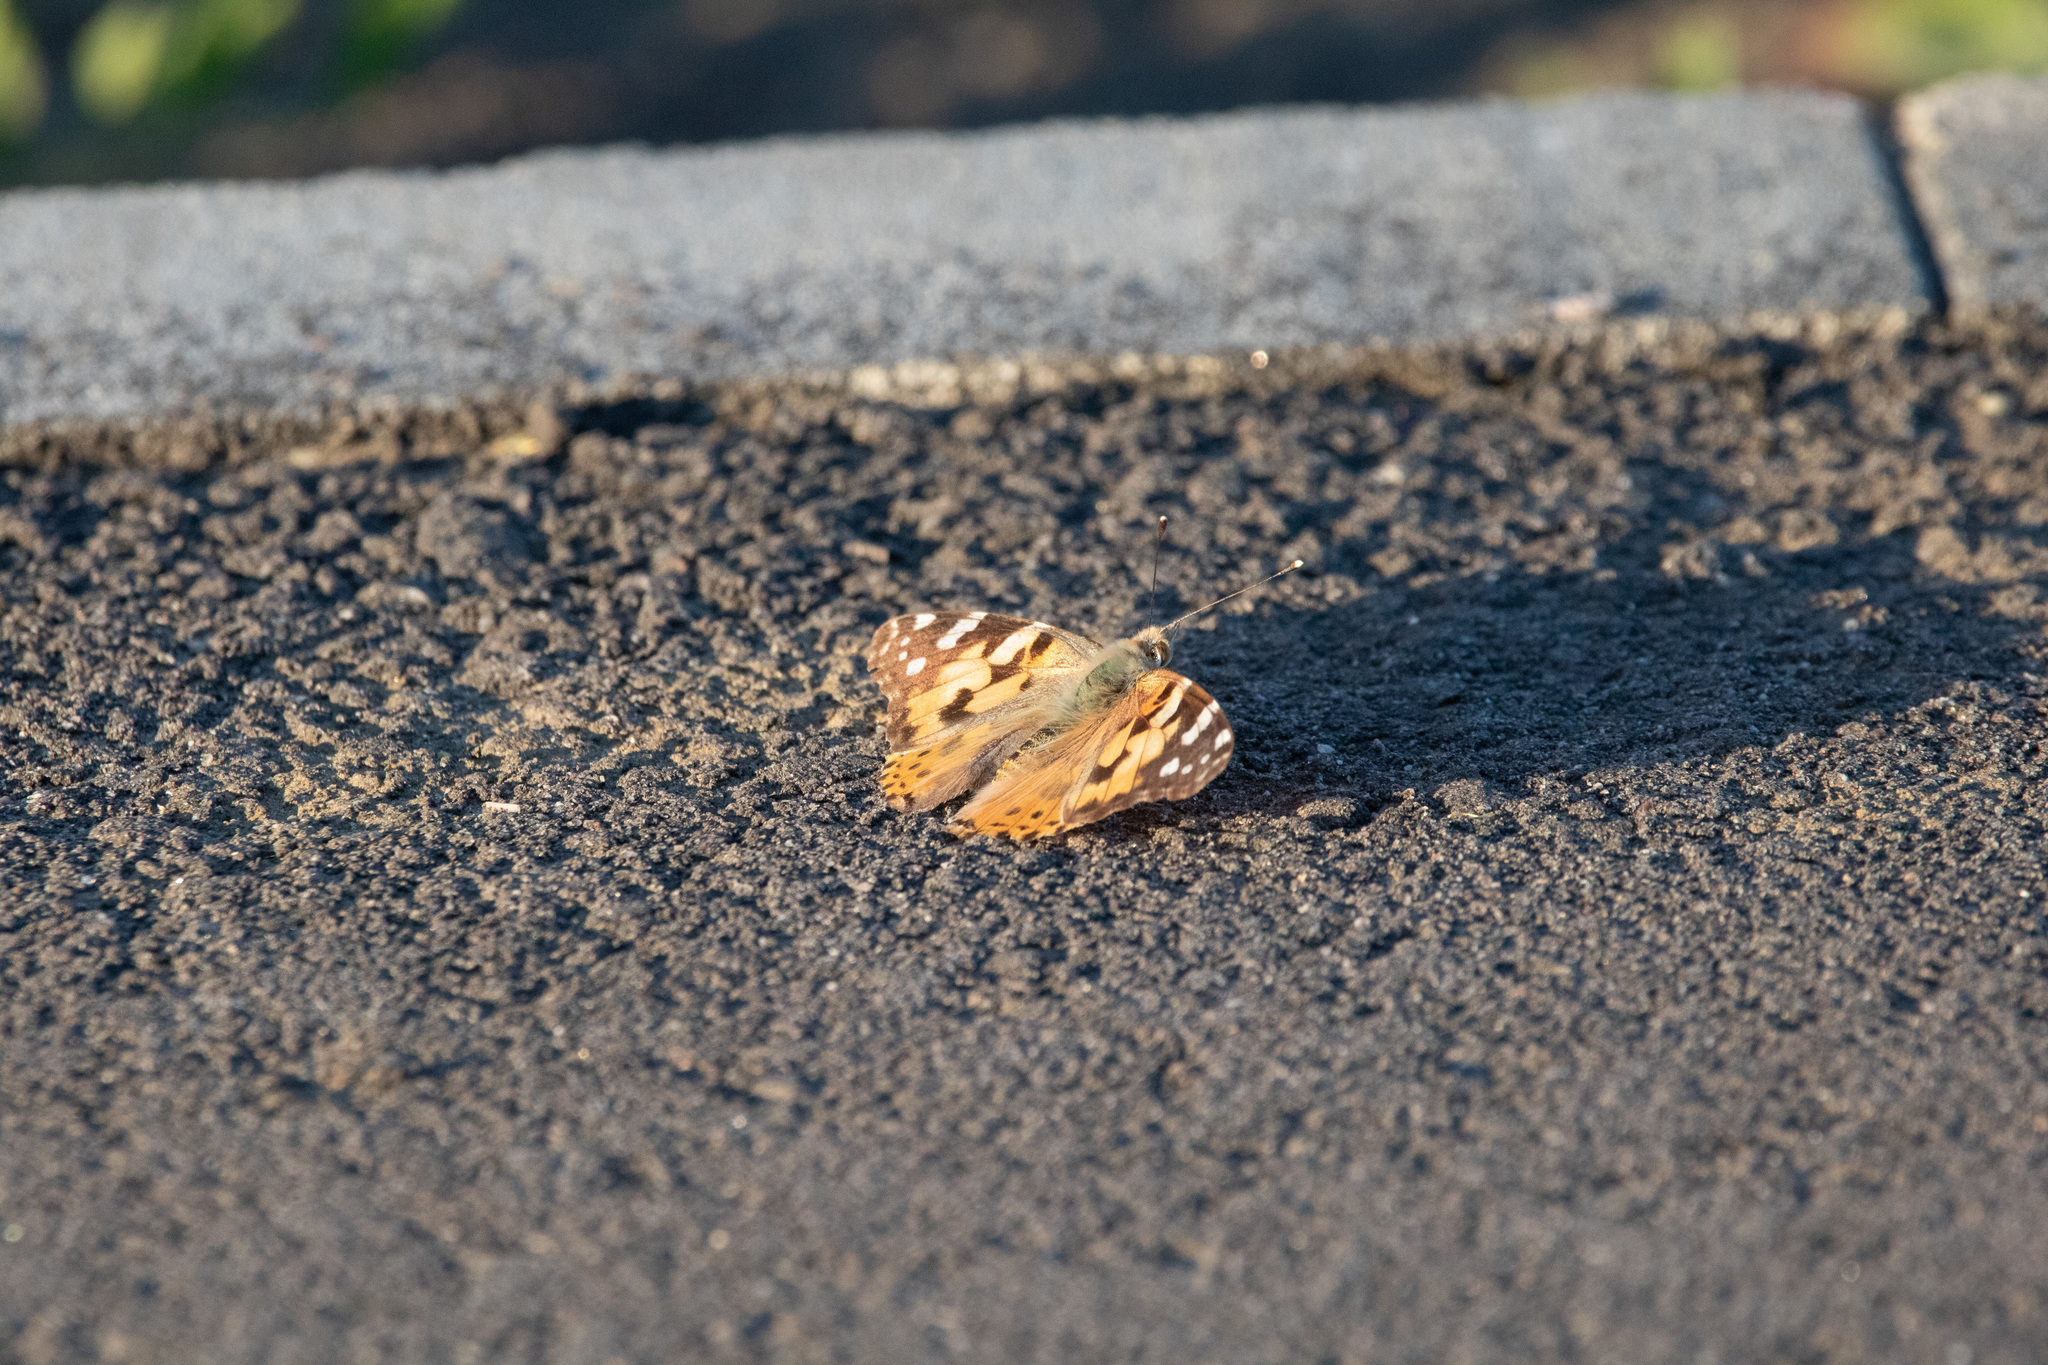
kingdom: Animalia
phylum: Arthropoda
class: Insecta
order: Lepidoptera
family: Nymphalidae
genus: Vanessa
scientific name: Vanessa cardui
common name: Painted lady
